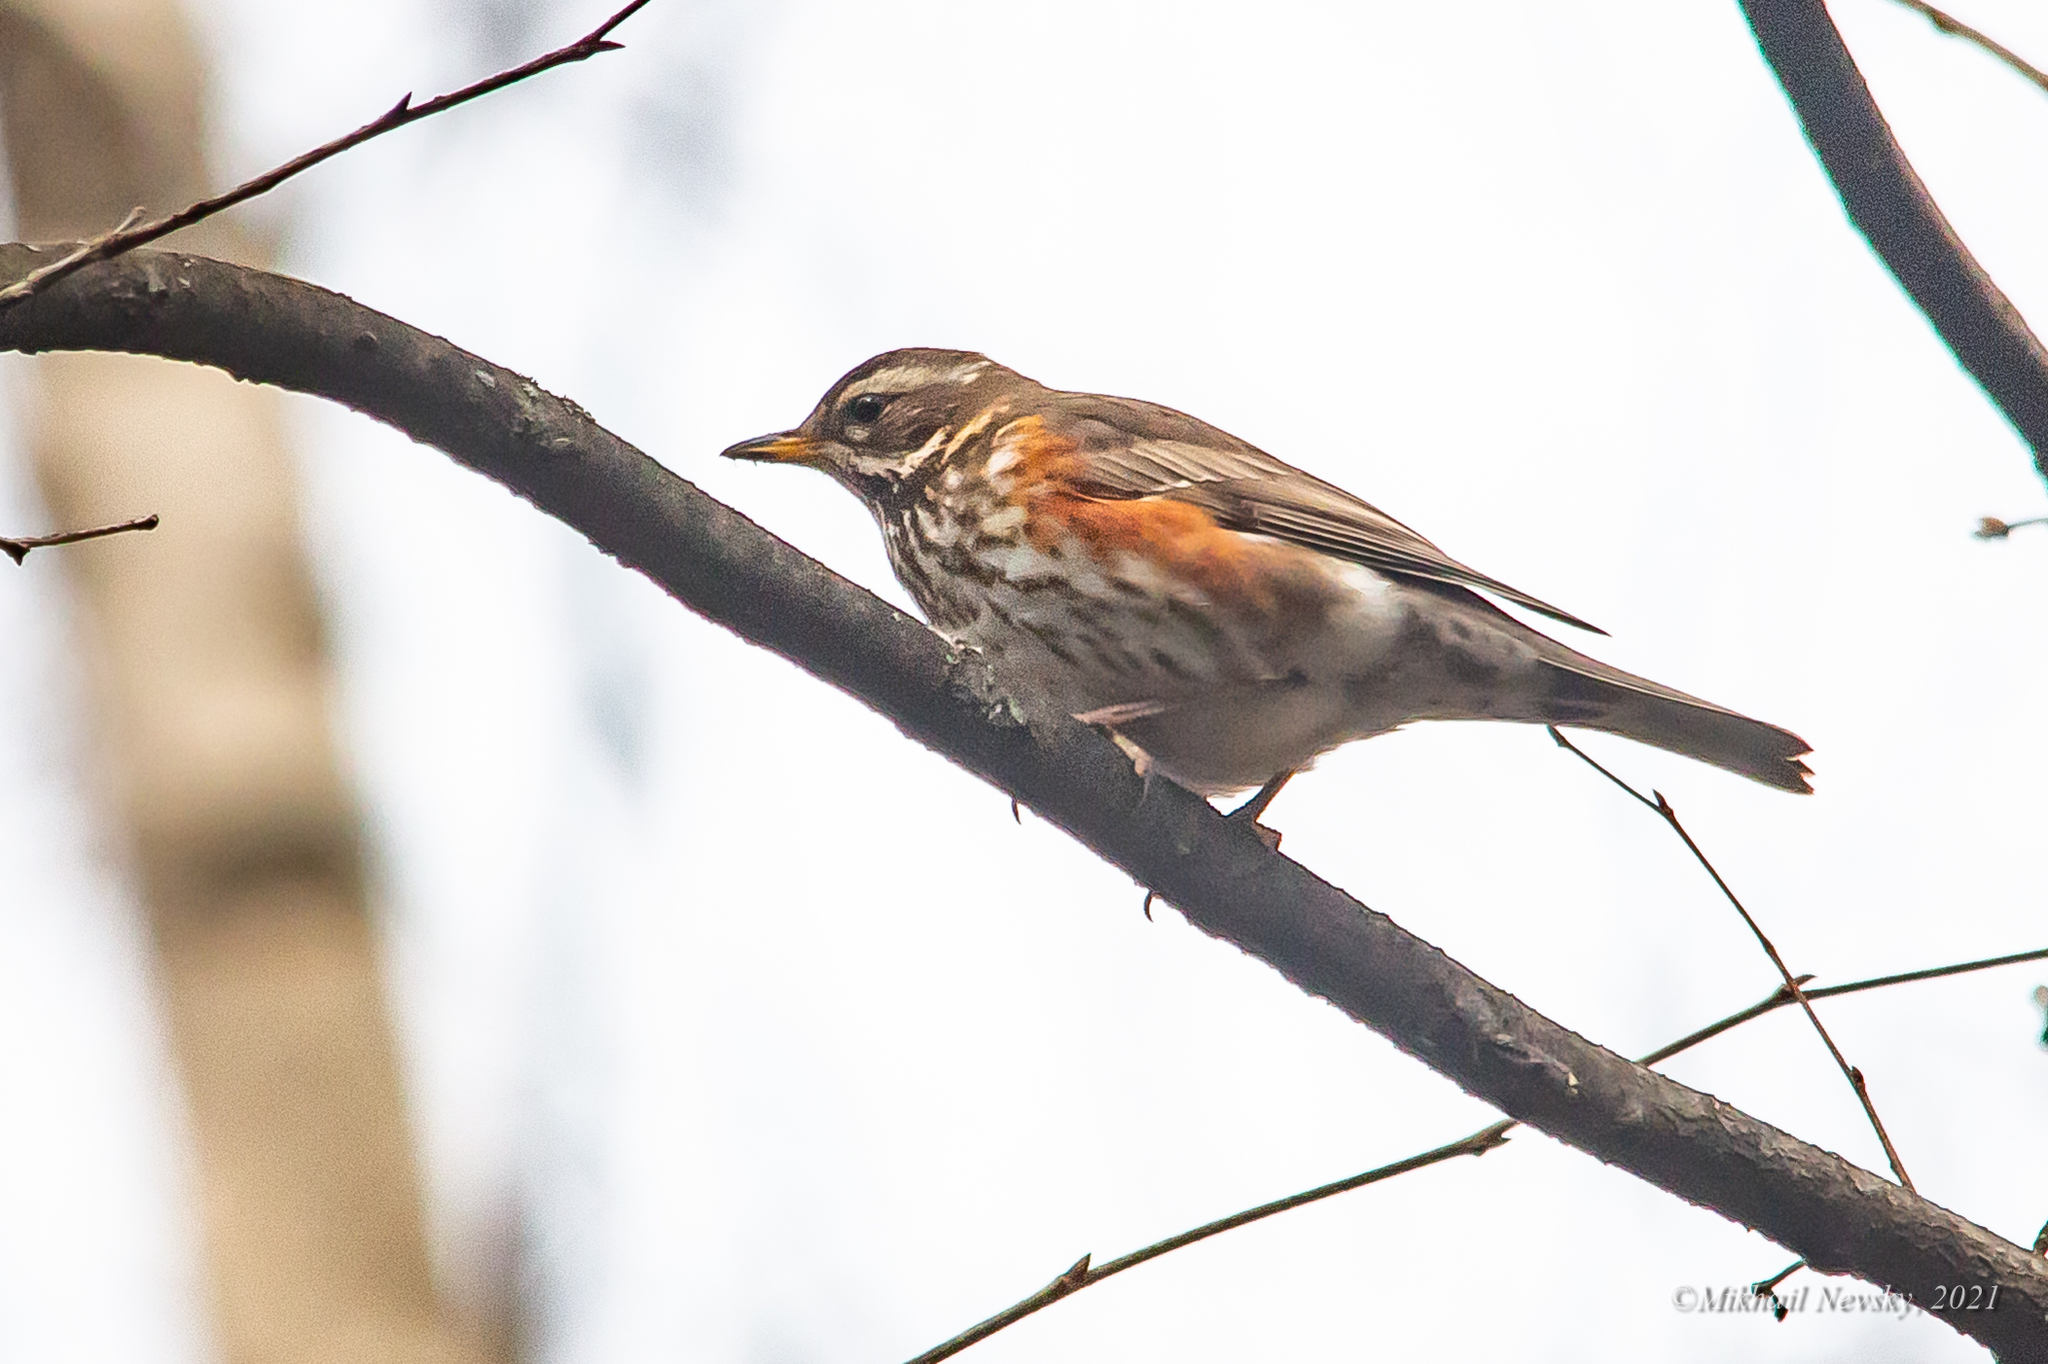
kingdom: Animalia
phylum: Chordata
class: Aves
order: Passeriformes
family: Turdidae
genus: Turdus
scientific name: Turdus iliacus
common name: Redwing
